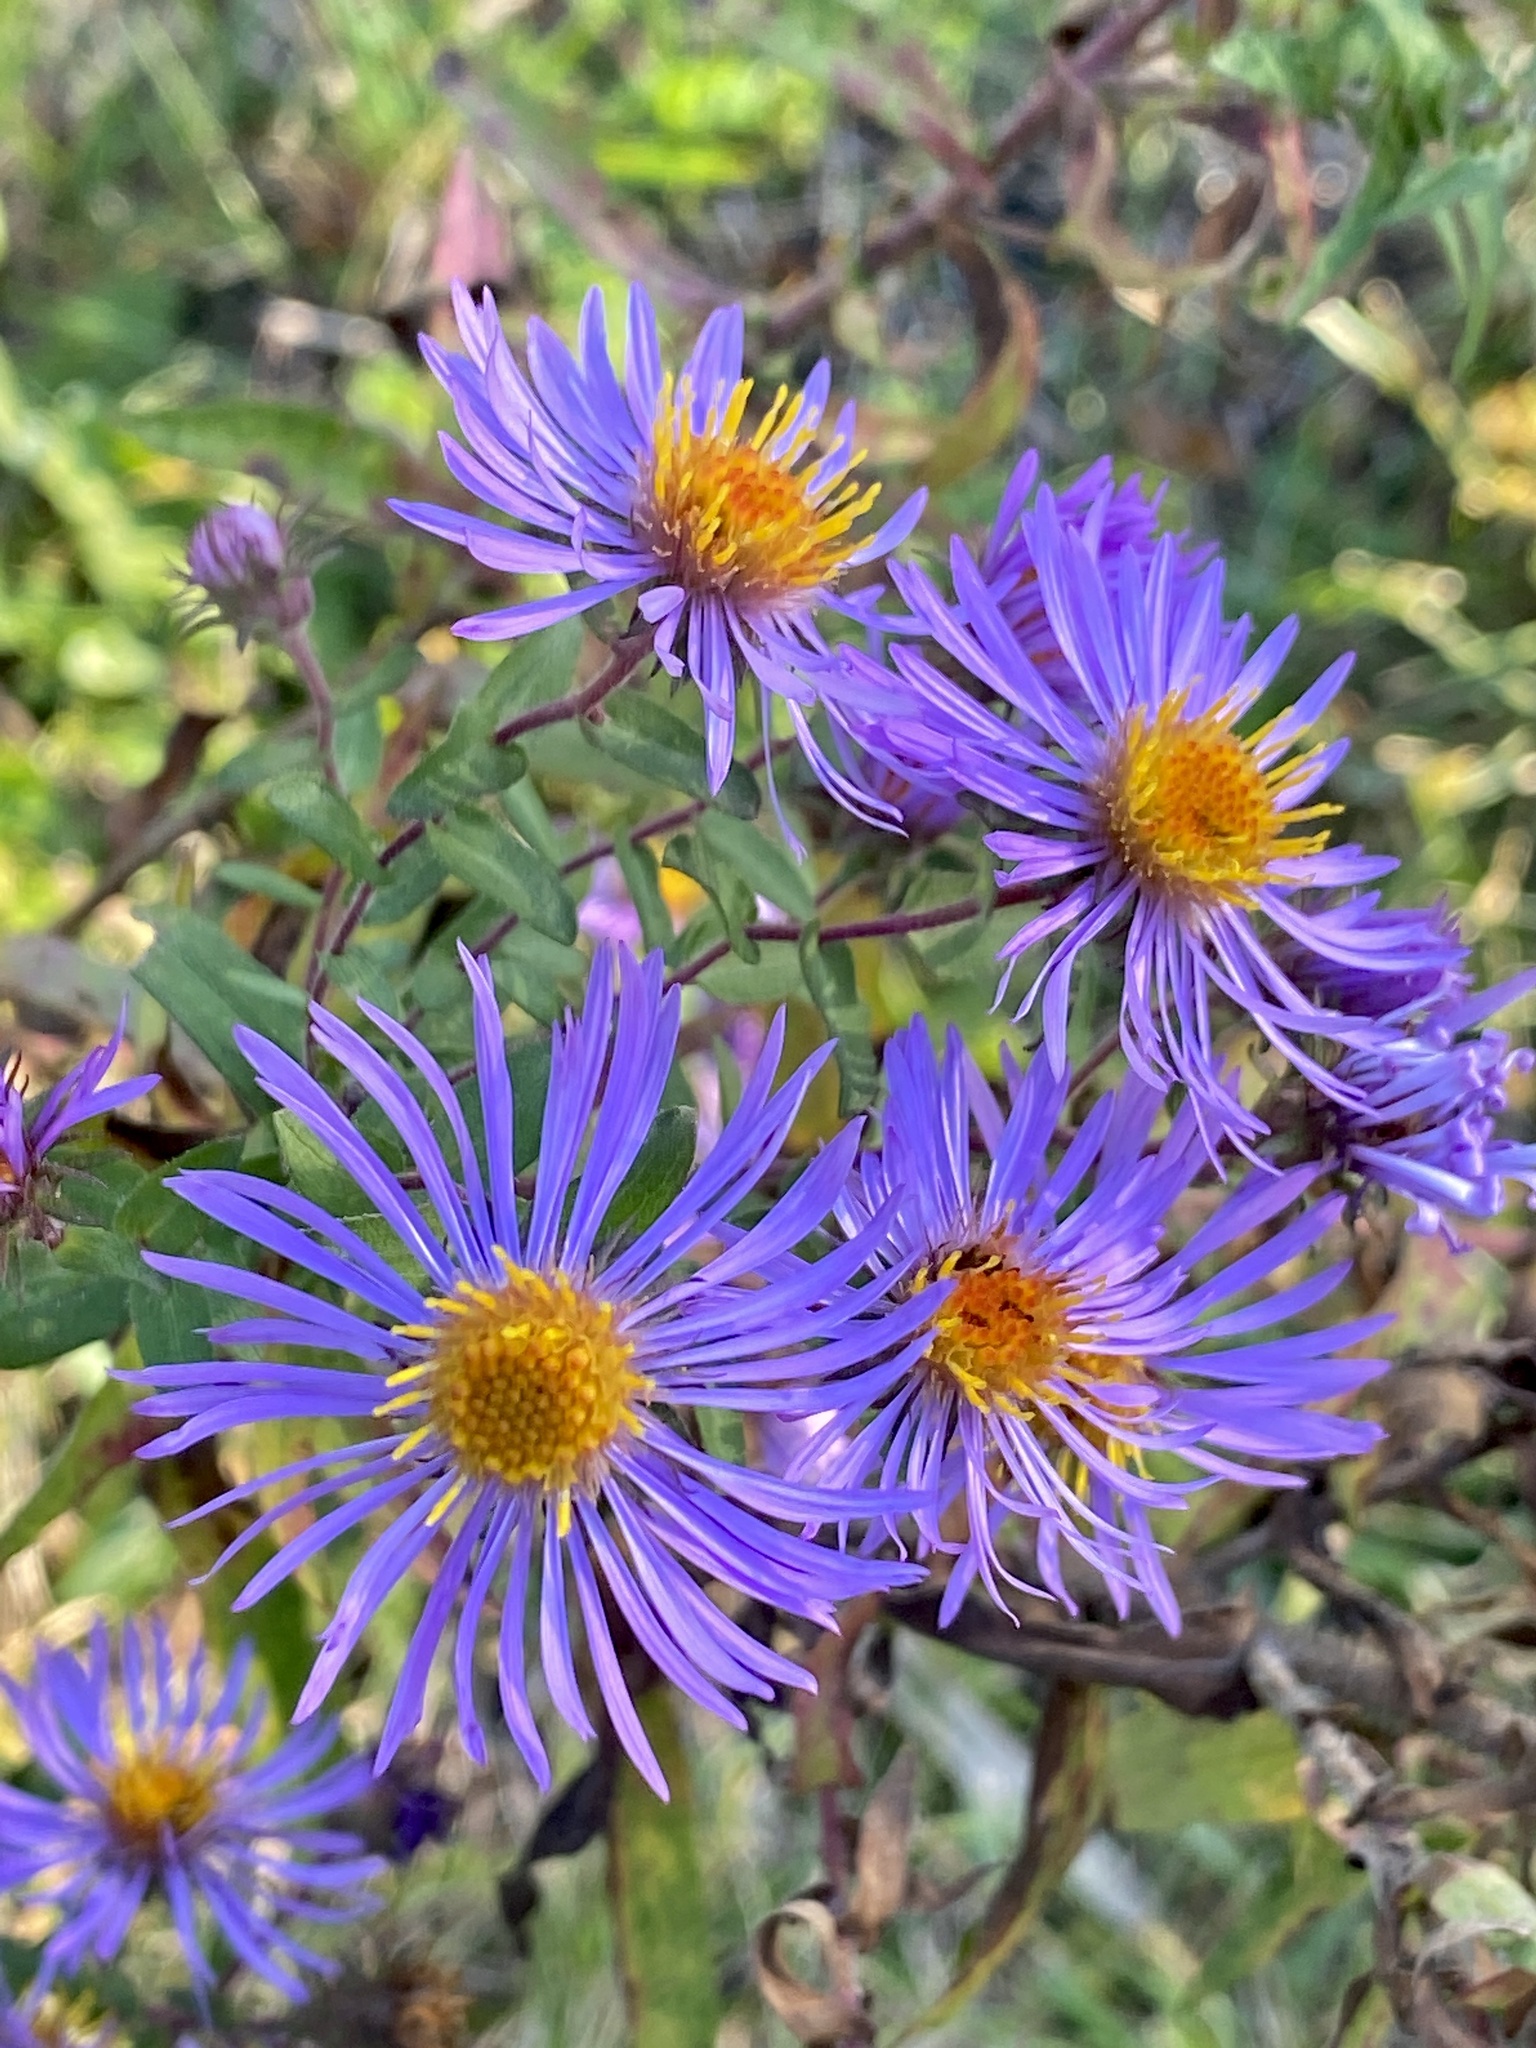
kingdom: Plantae
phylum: Tracheophyta
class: Magnoliopsida
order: Asterales
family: Asteraceae
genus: Symphyotrichum
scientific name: Symphyotrichum novae-angliae
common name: Michaelmas daisy
